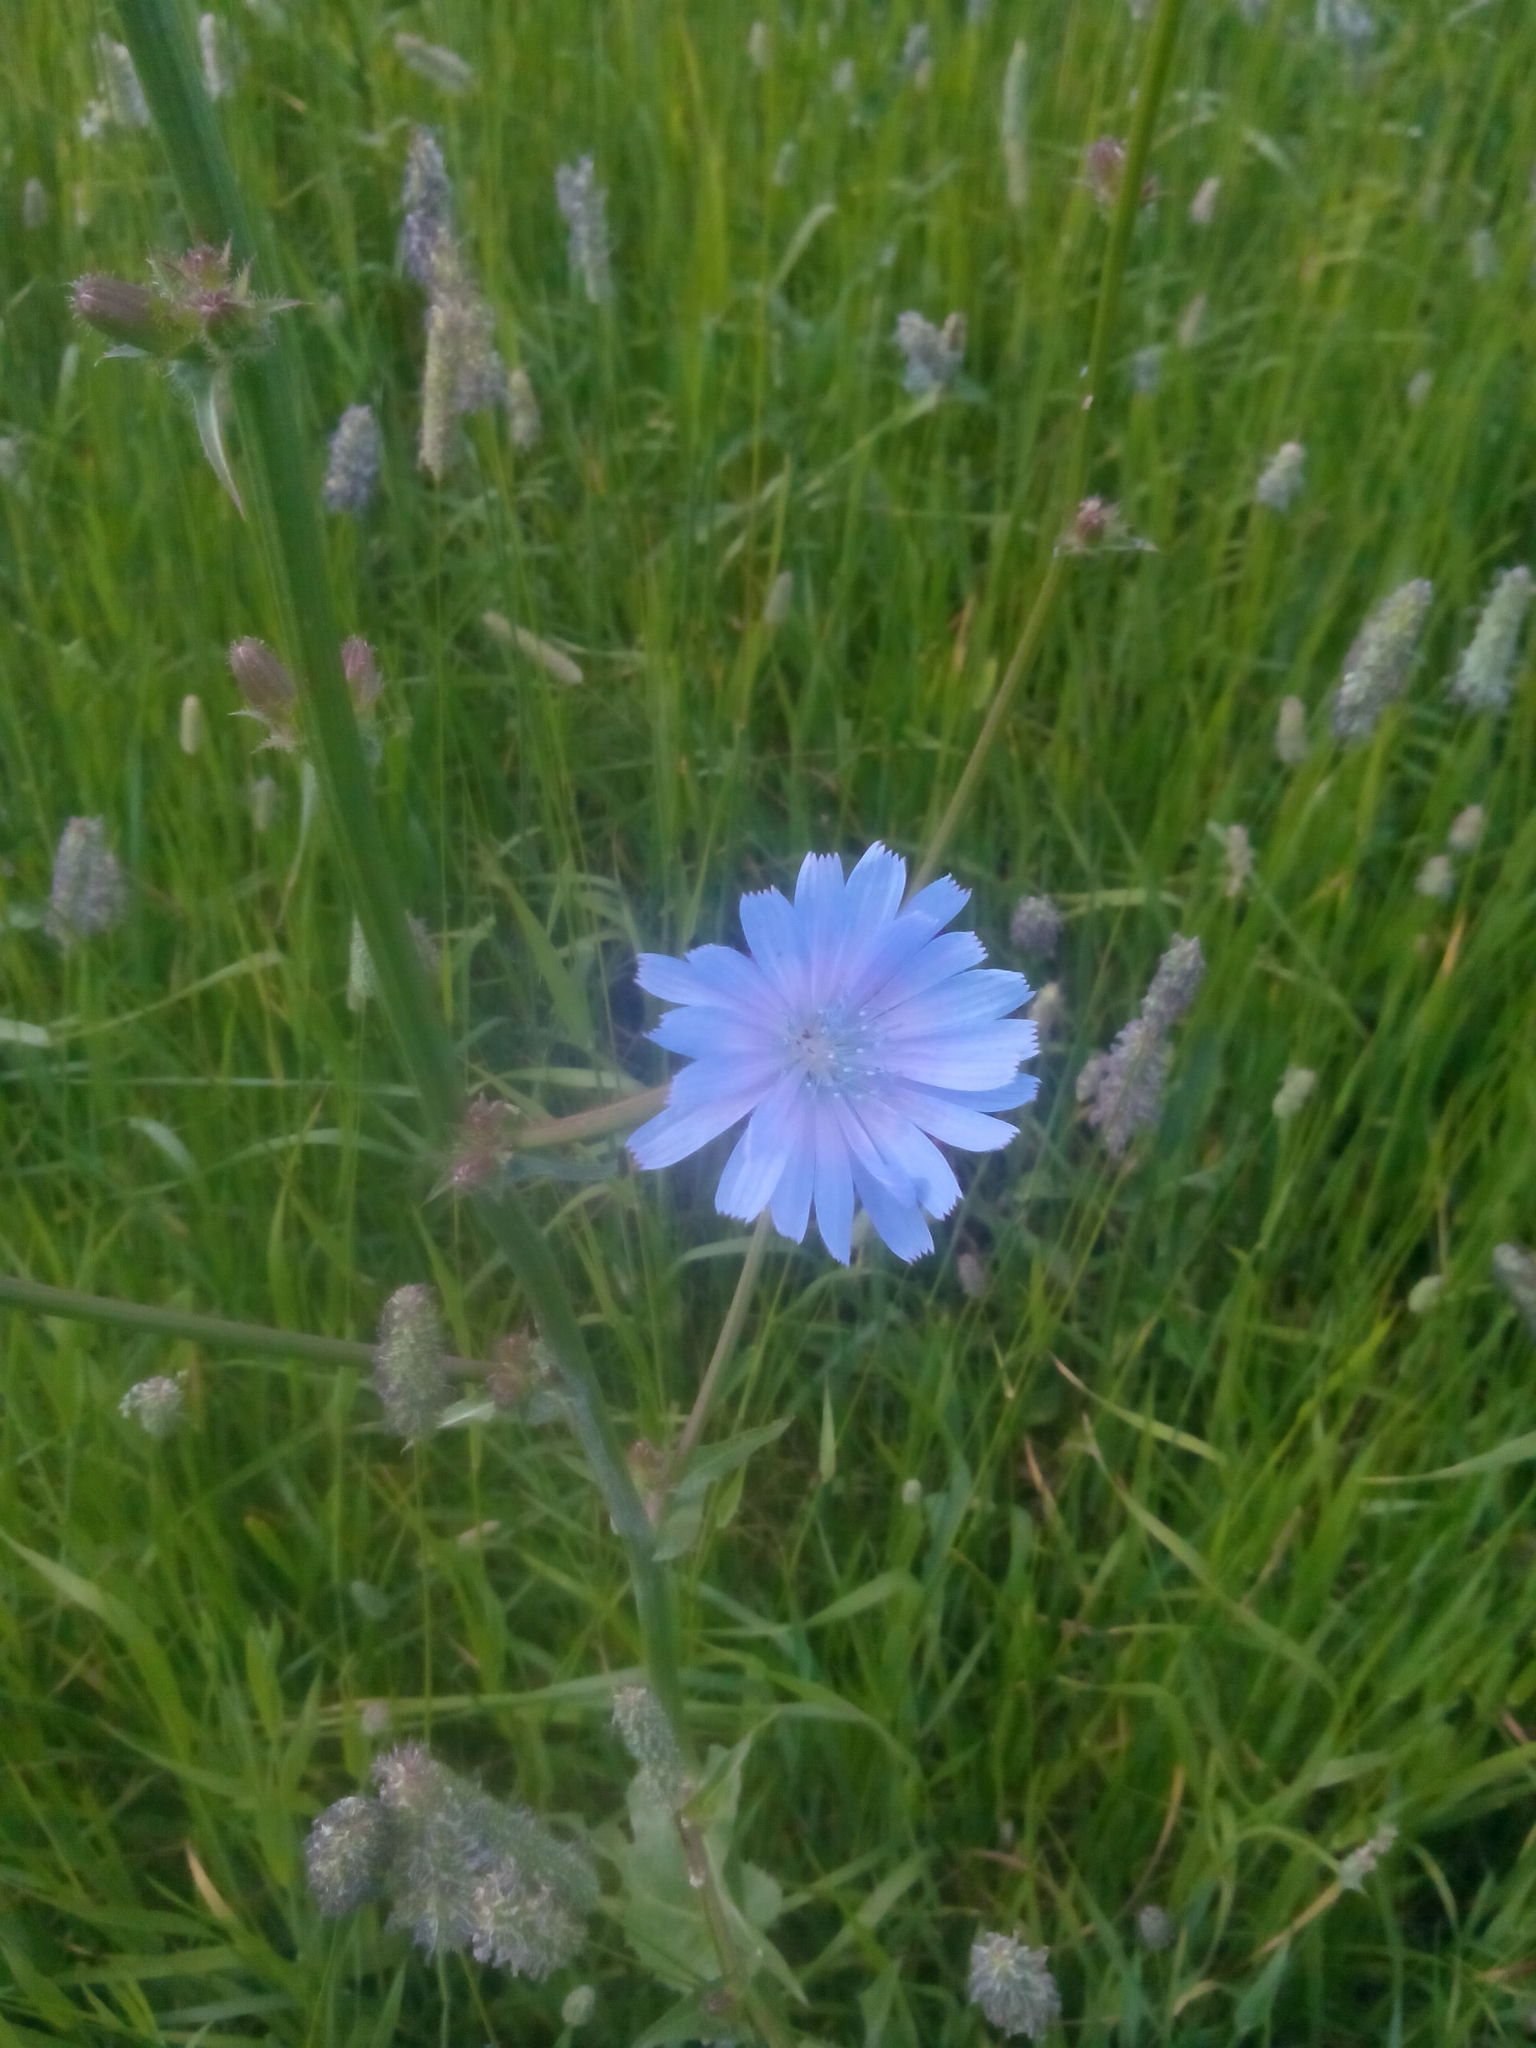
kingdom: Plantae
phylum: Tracheophyta
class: Magnoliopsida
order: Asterales
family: Asteraceae
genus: Cichorium
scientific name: Cichorium intybus
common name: Chicory
